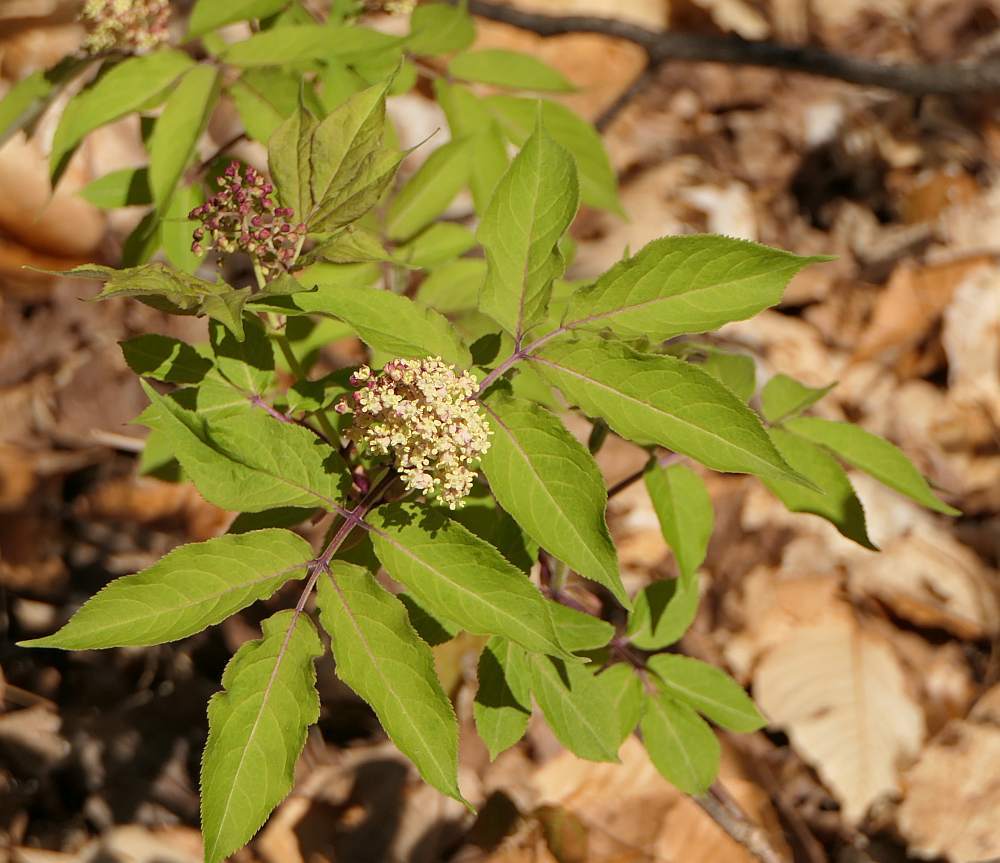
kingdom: Plantae
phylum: Tracheophyta
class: Magnoliopsida
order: Dipsacales
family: Viburnaceae
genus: Sambucus
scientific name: Sambucus racemosa
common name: Red-berried elder
